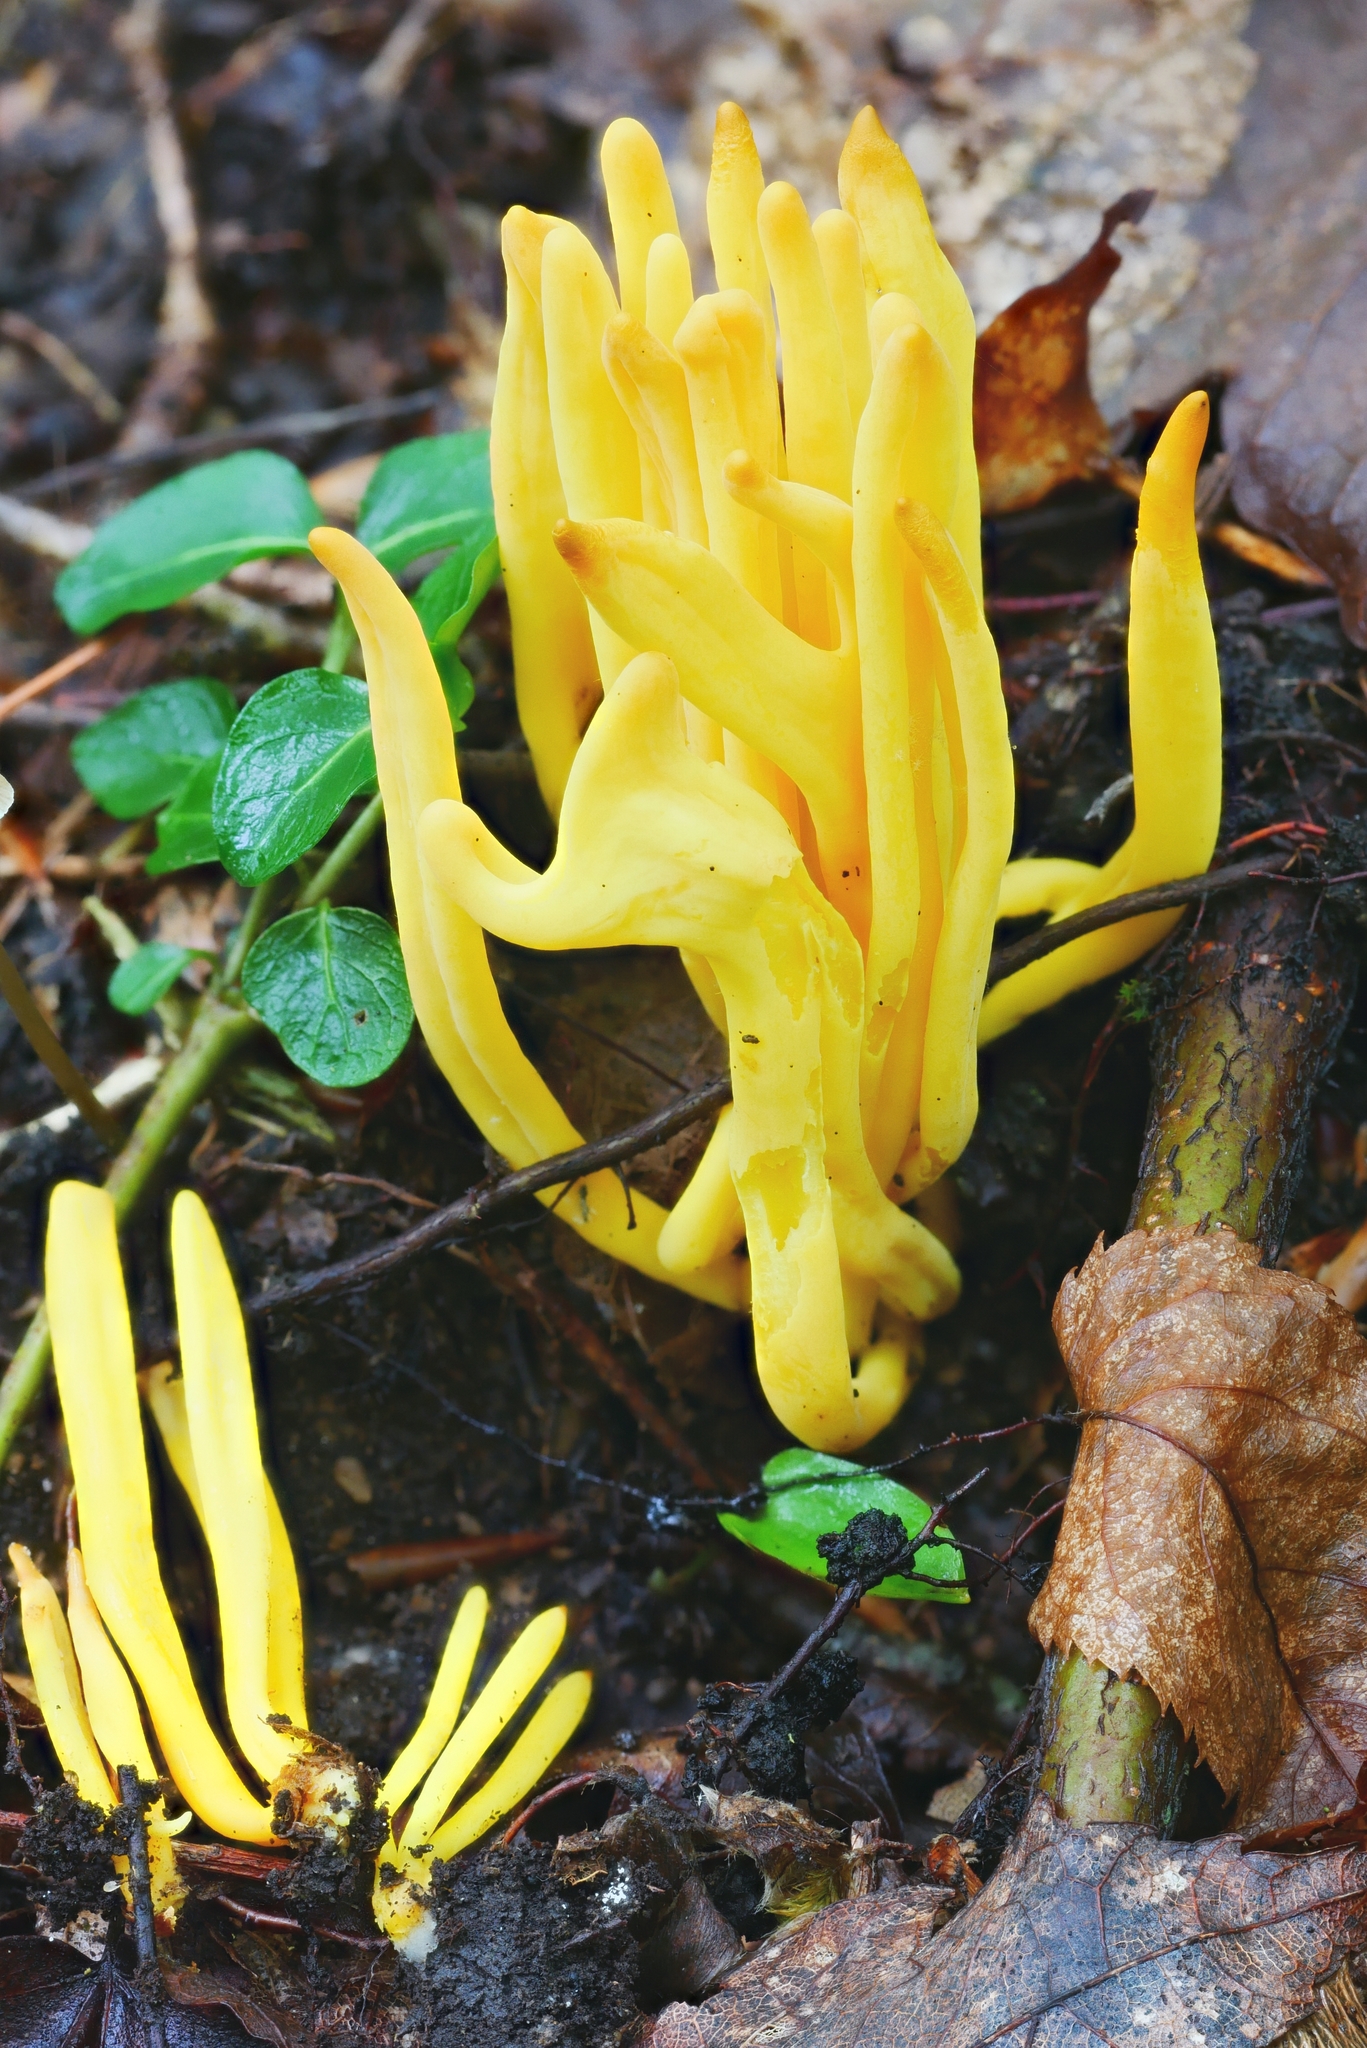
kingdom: Fungi
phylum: Basidiomycota
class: Agaricomycetes
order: Agaricales
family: Clavariaceae
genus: Clavulinopsis
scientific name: Clavulinopsis fusiformis
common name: Golden spindles
